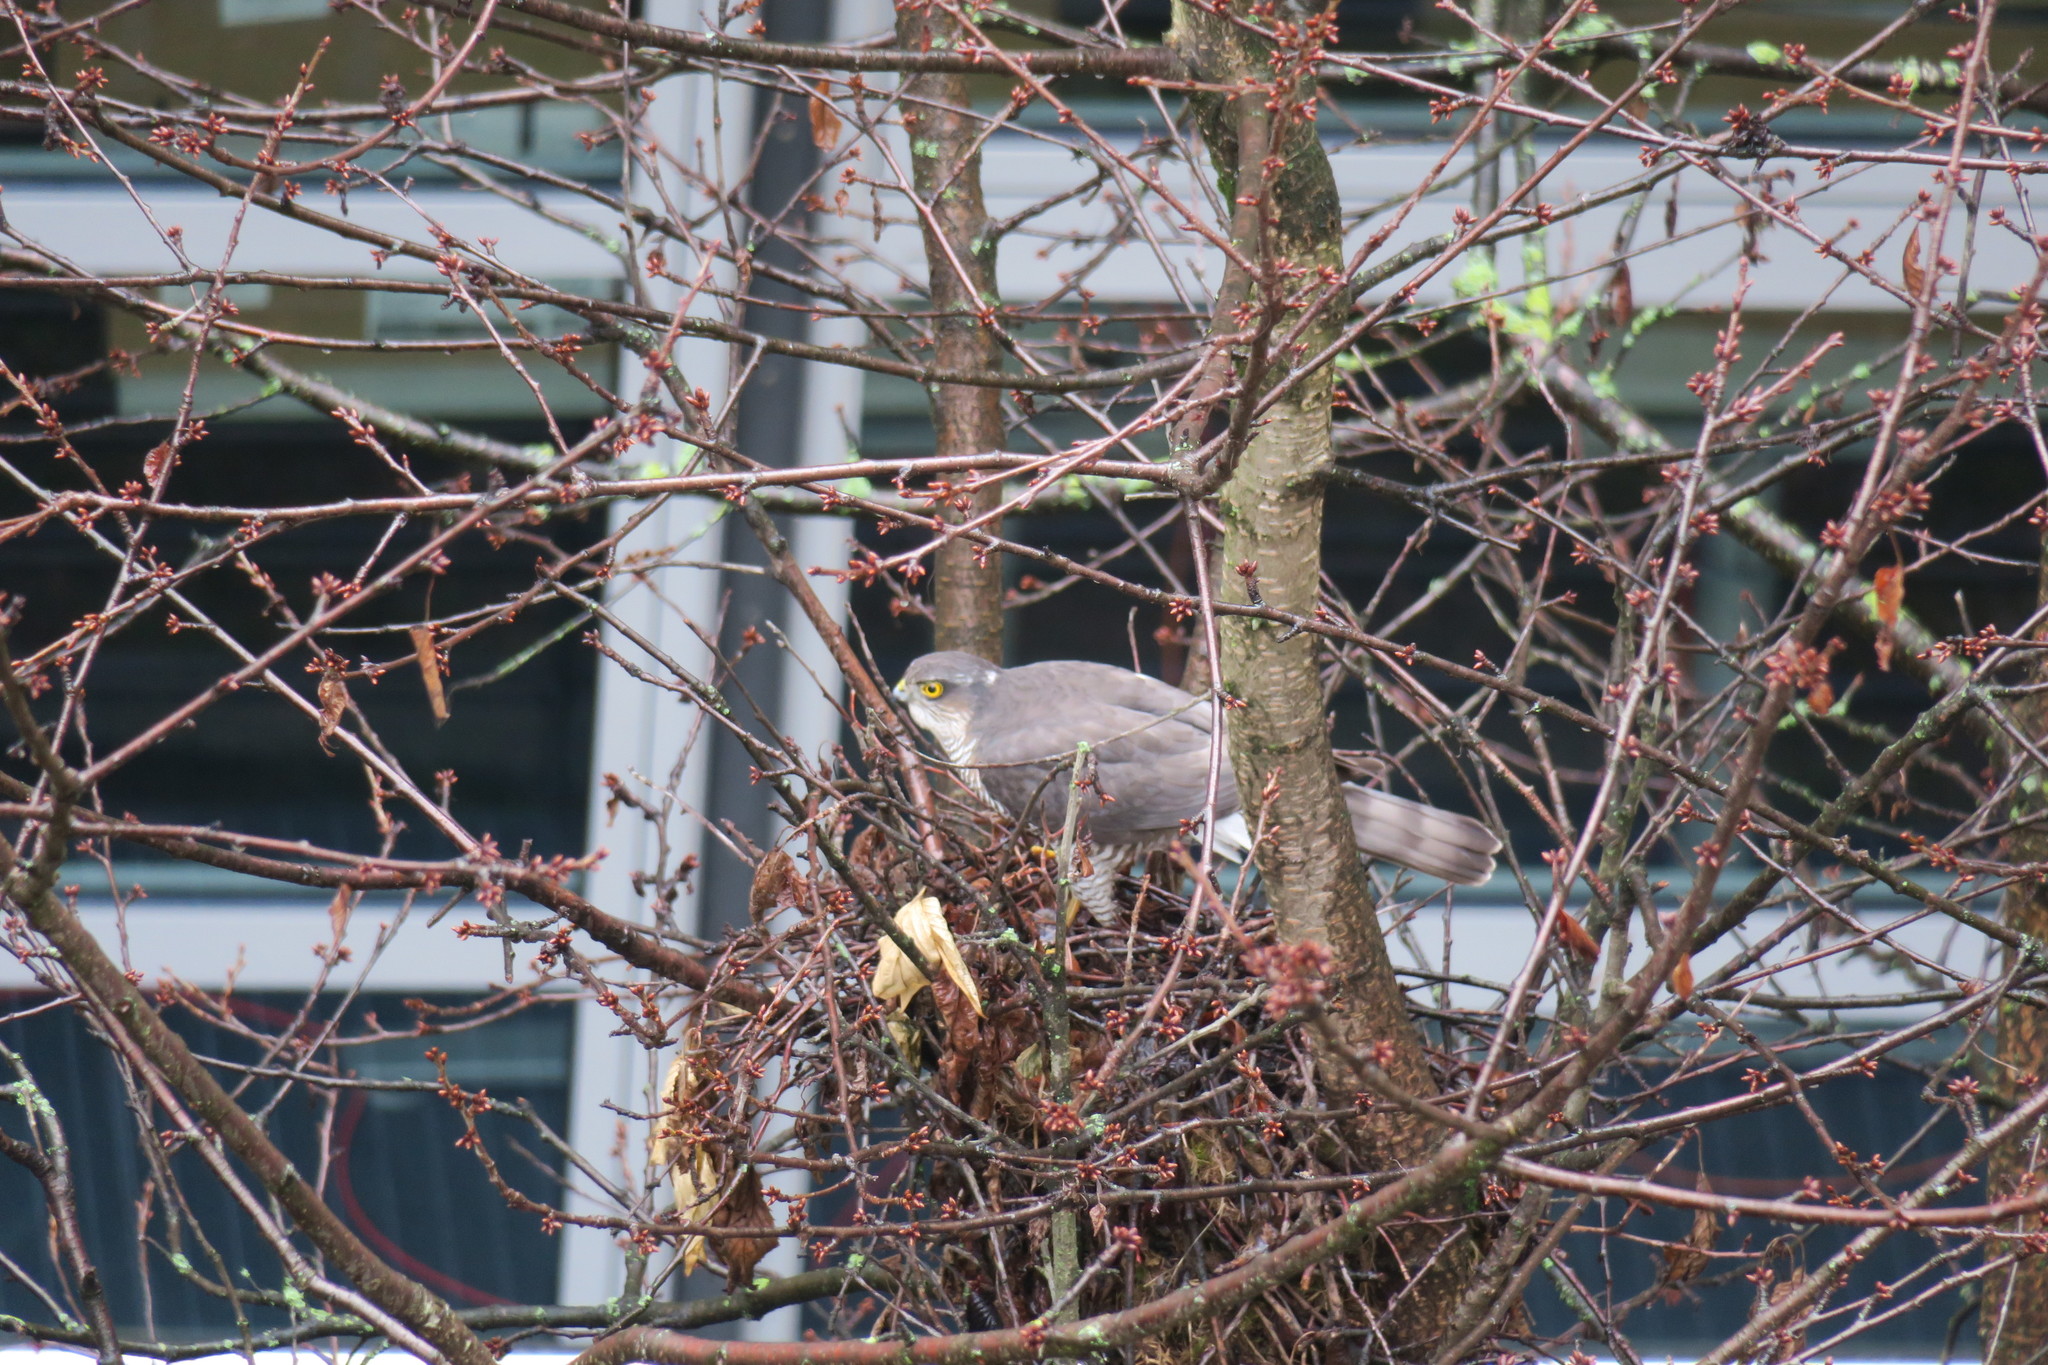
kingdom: Animalia
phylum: Chordata
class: Aves
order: Accipitriformes
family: Accipitridae
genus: Accipiter
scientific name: Accipiter nisus
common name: Eurasian sparrowhawk
